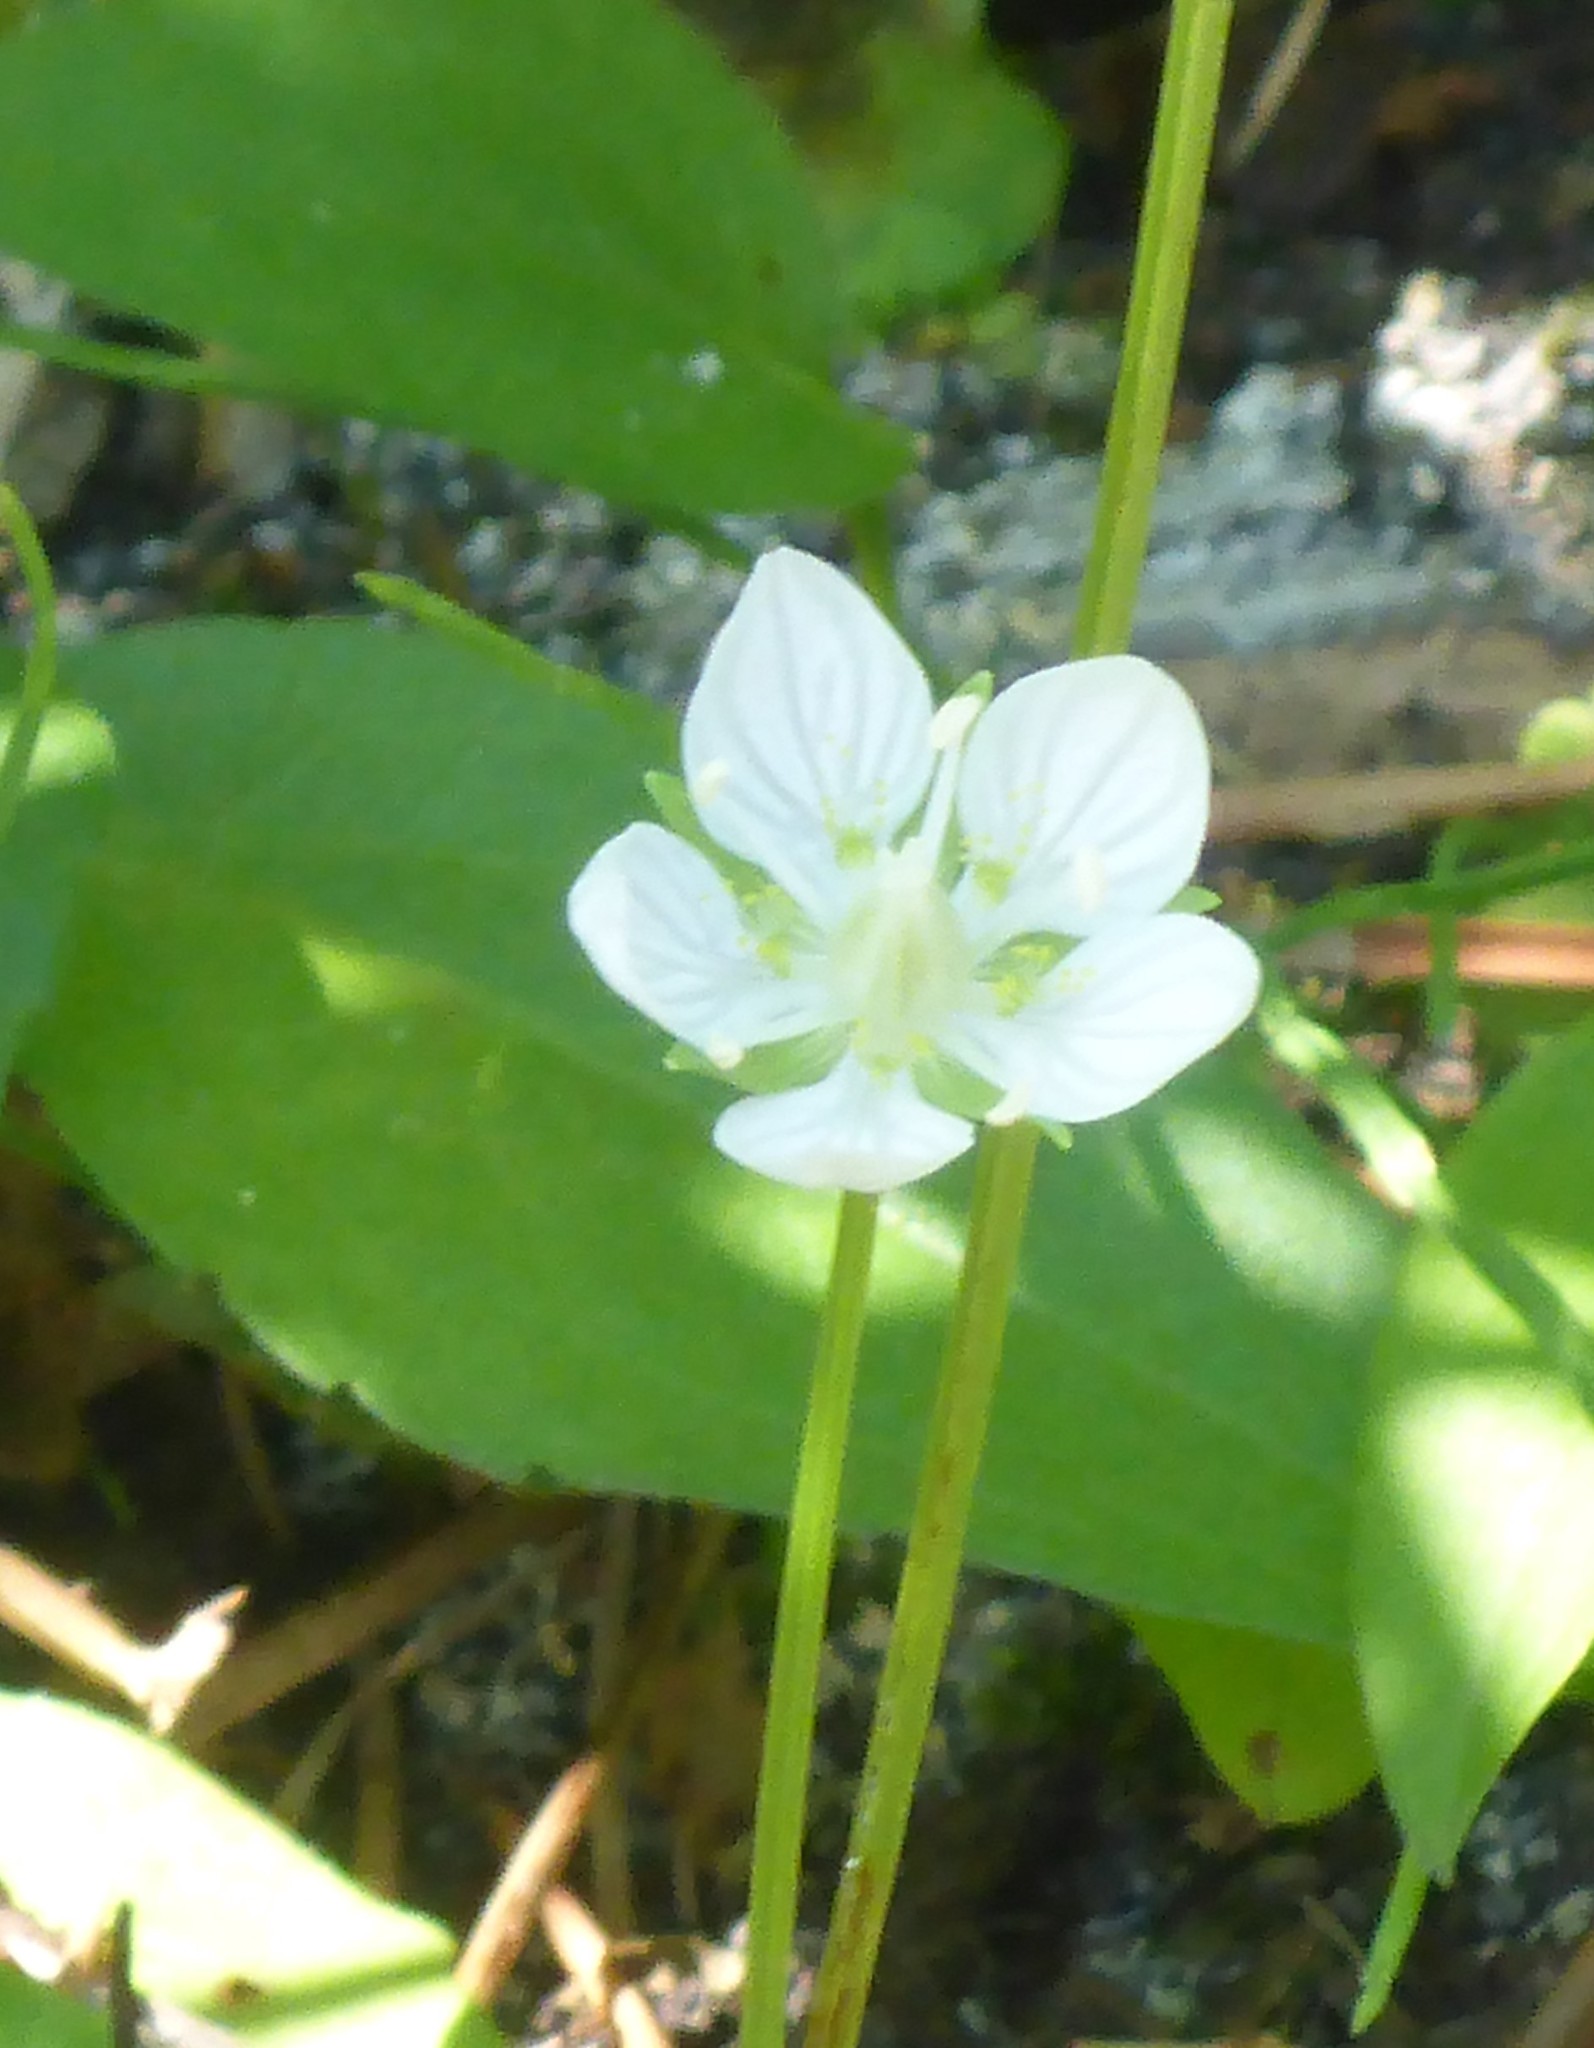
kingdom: Plantae
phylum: Tracheophyta
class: Magnoliopsida
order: Celastrales
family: Parnassiaceae
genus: Parnassia
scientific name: Parnassia palustris
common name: Grass-of-parnassus
